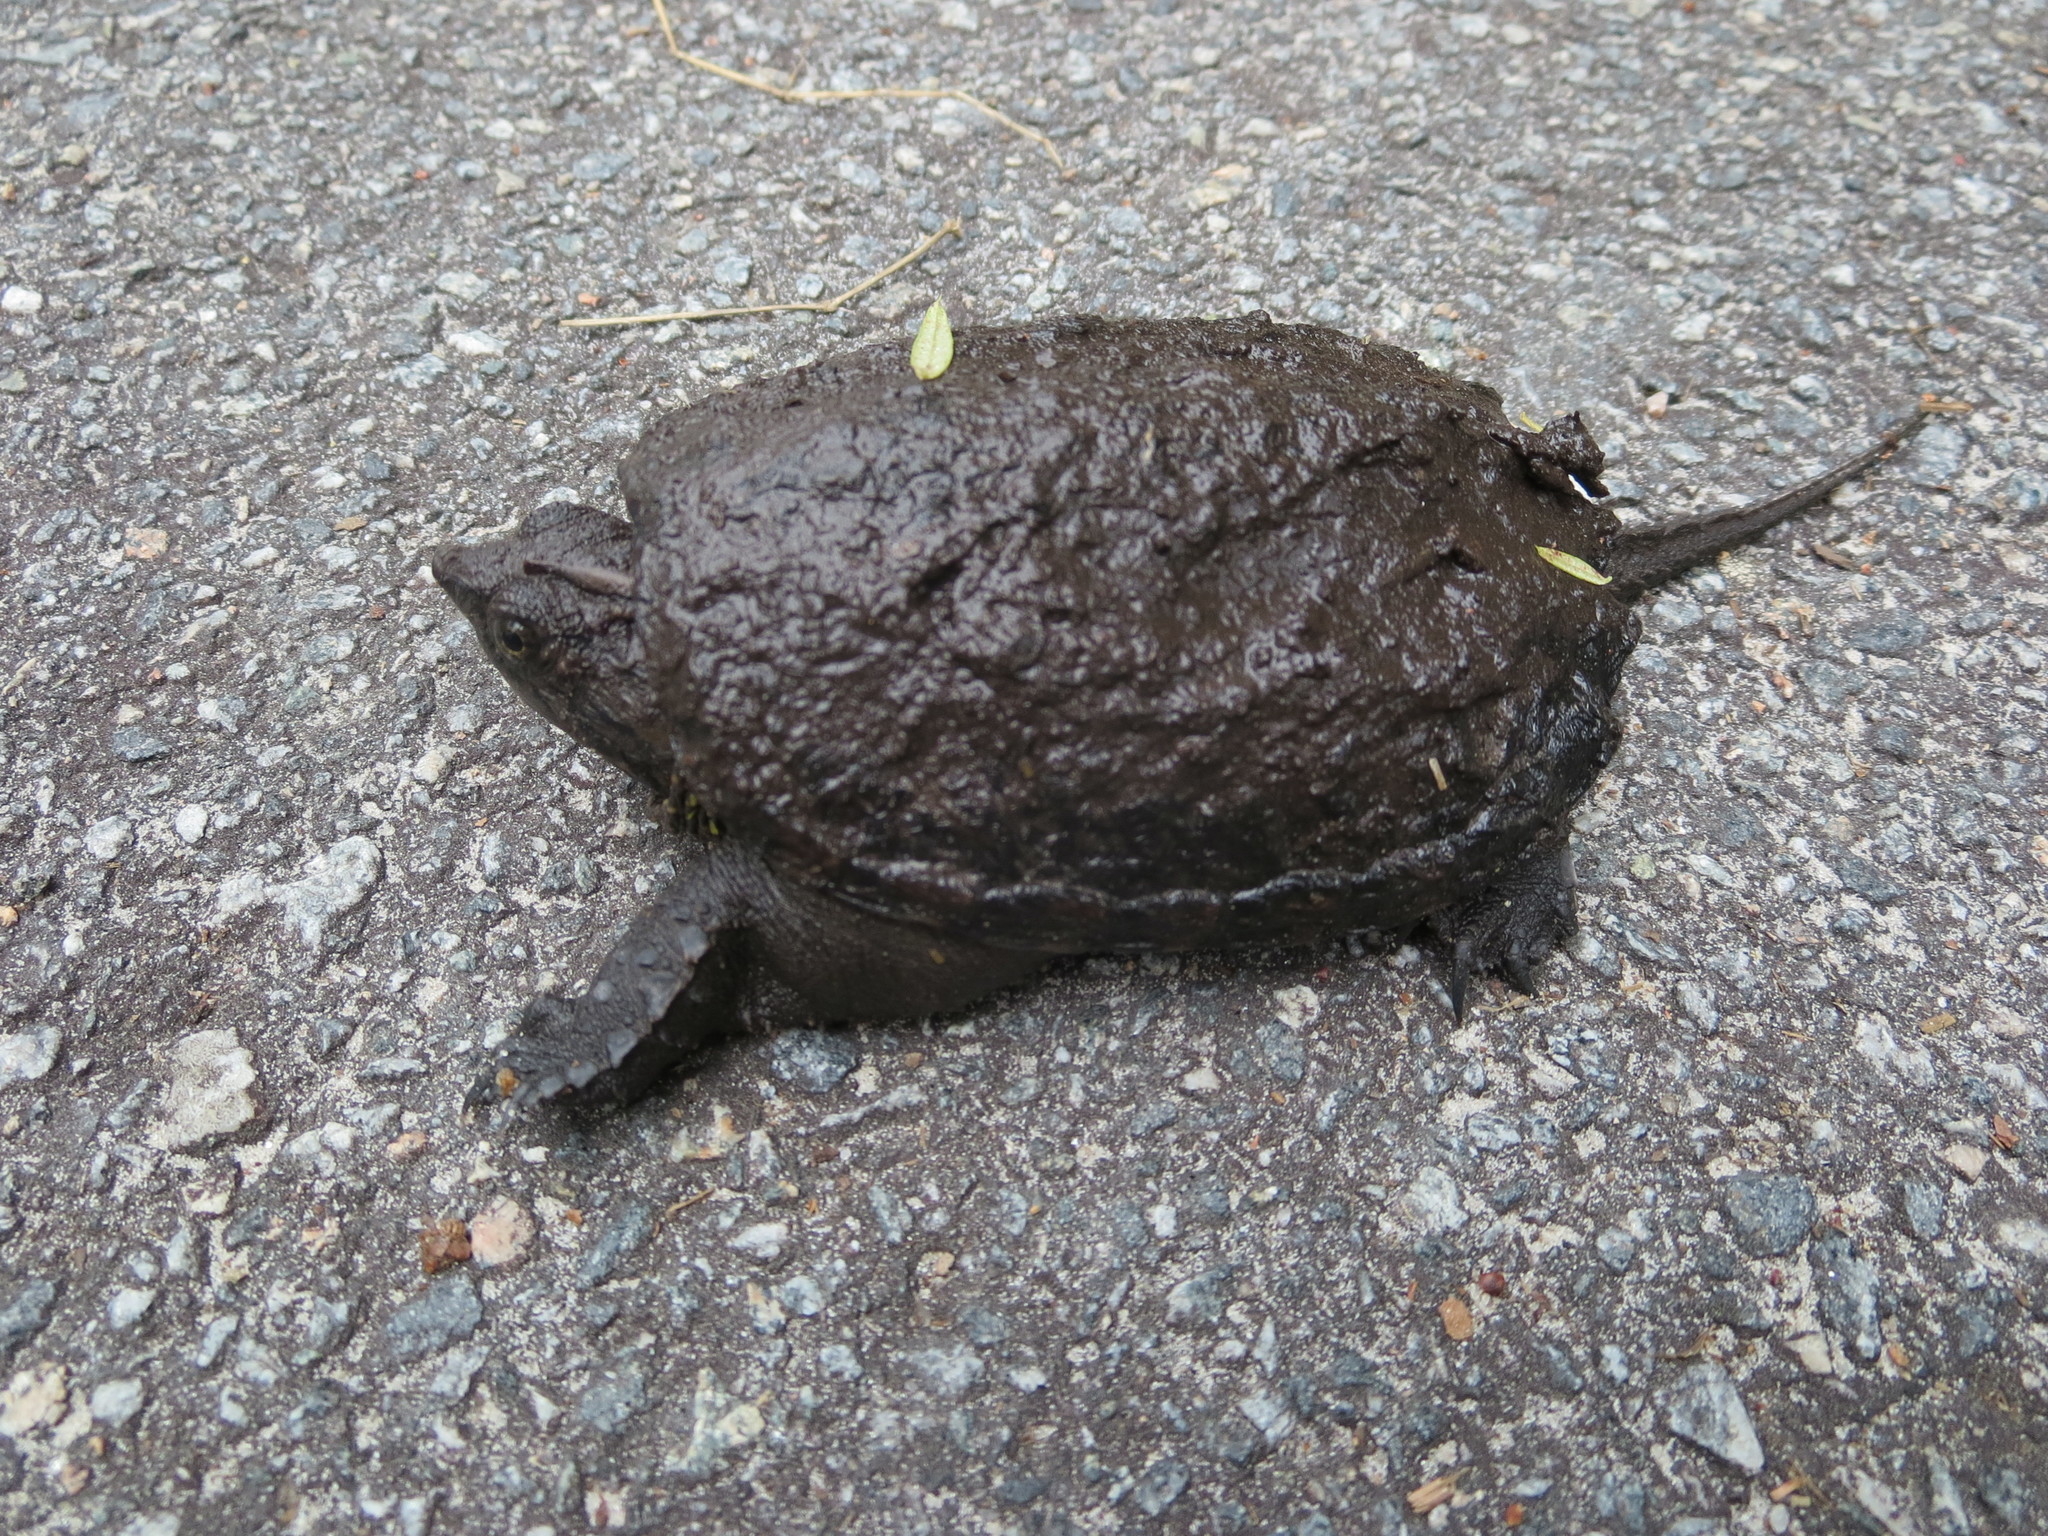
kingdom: Animalia
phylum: Chordata
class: Testudines
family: Chelydridae
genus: Chelydra
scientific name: Chelydra serpentina
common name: Common snapping turtle
